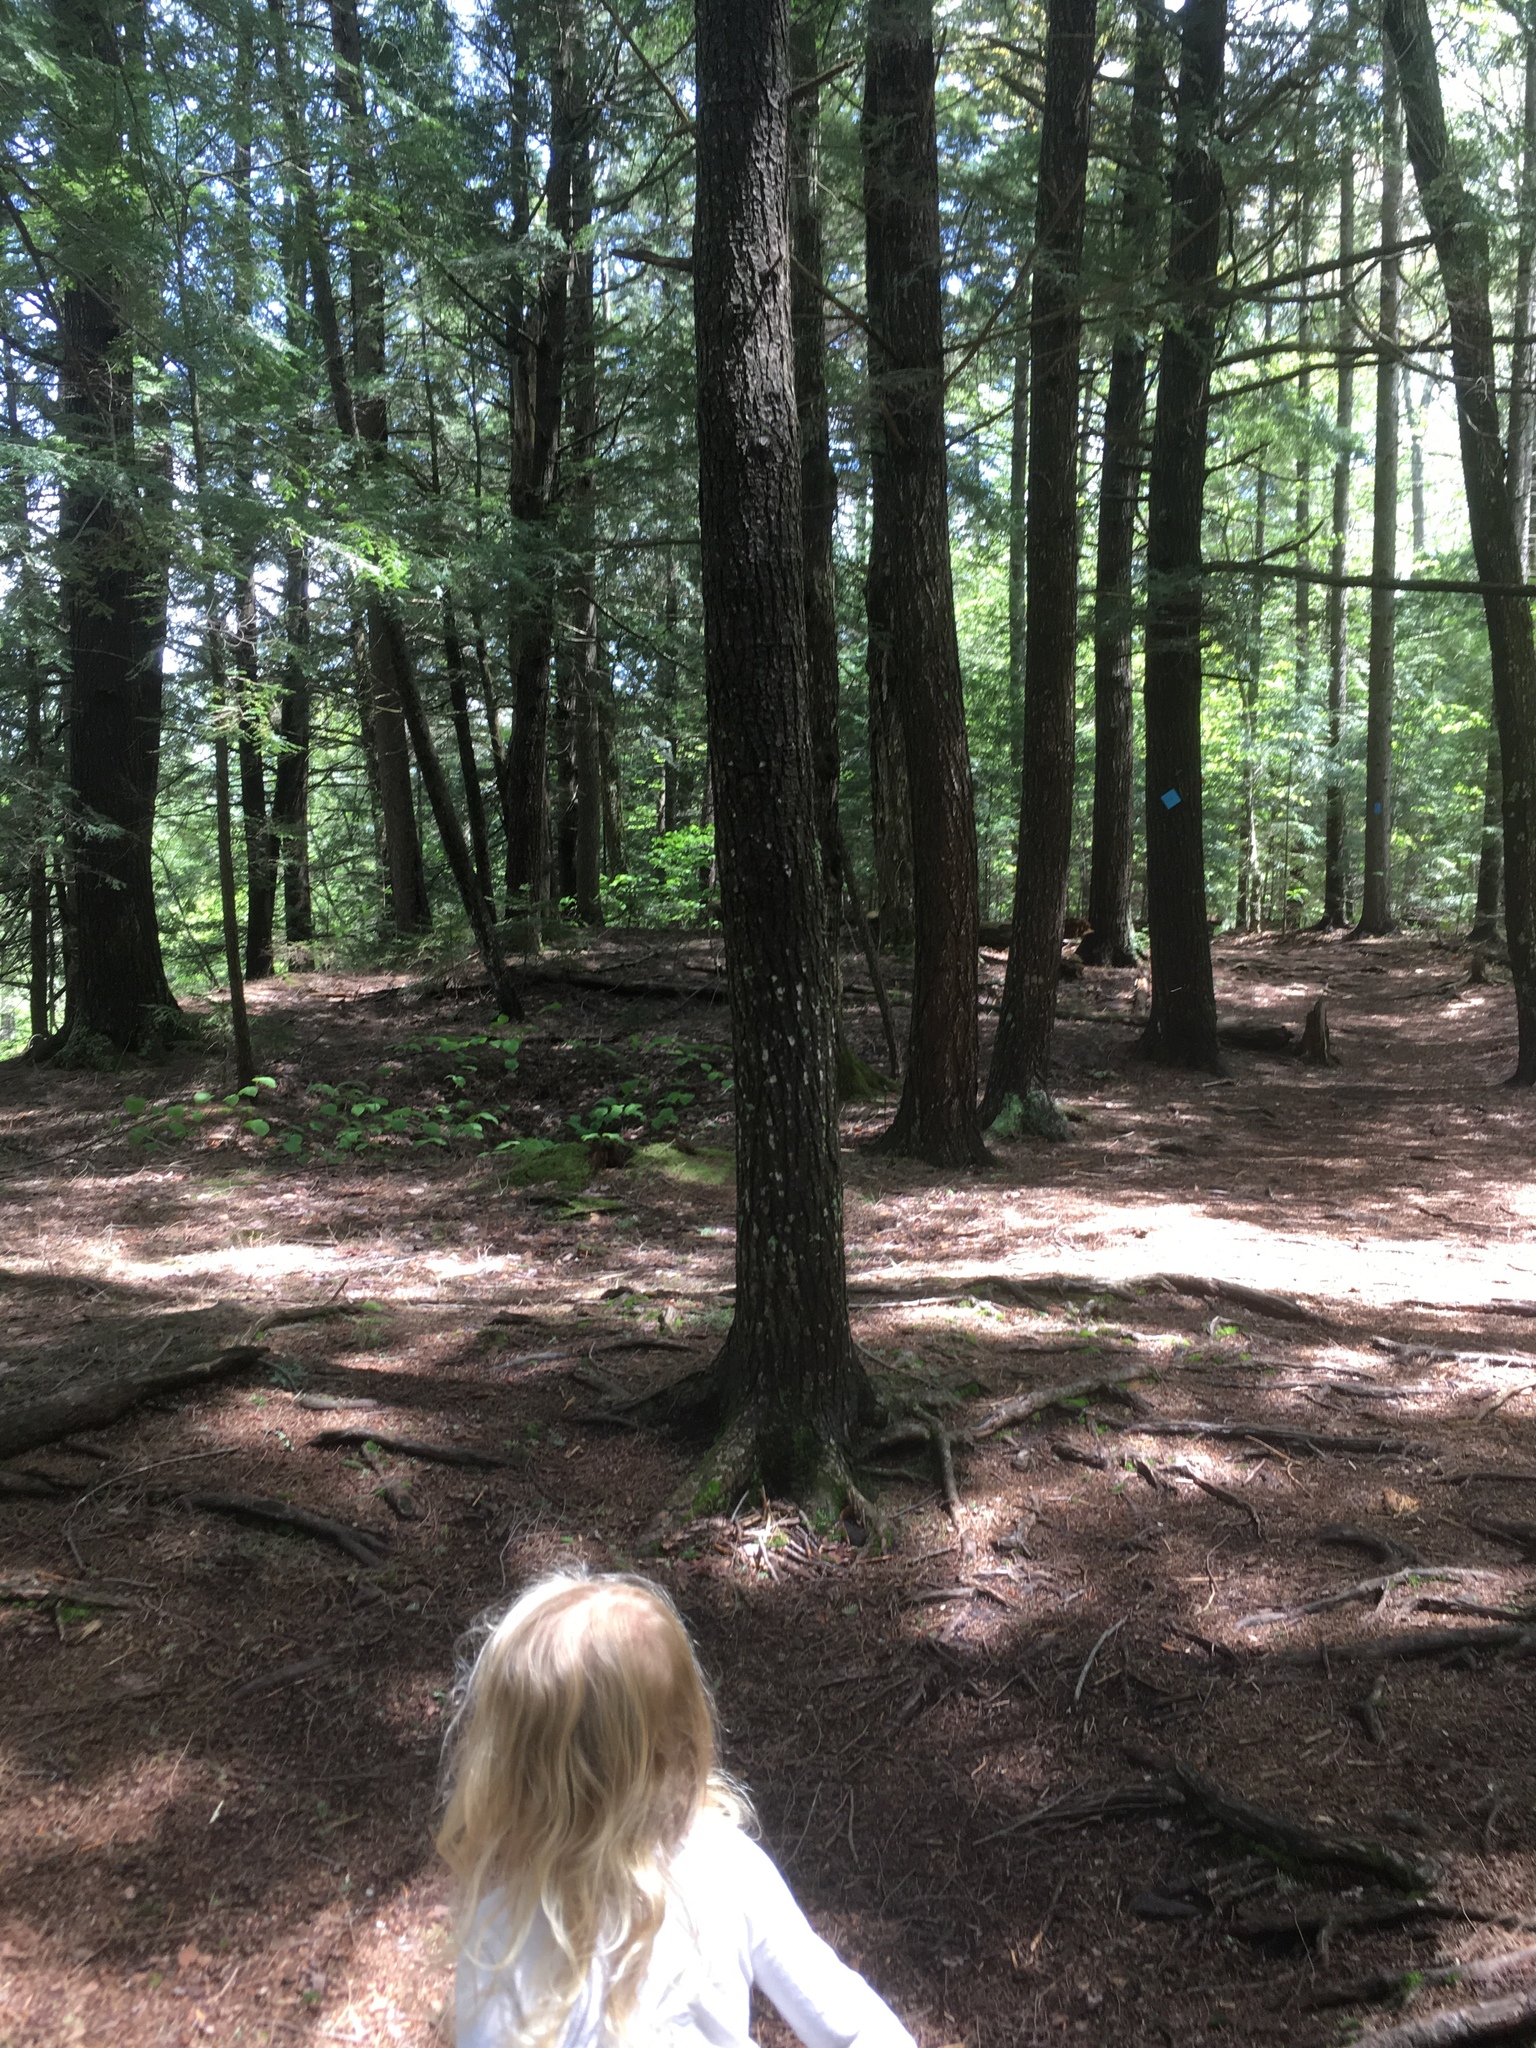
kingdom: Plantae
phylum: Tracheophyta
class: Pinopsida
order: Pinales
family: Pinaceae
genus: Tsuga
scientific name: Tsuga canadensis
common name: Eastern hemlock
